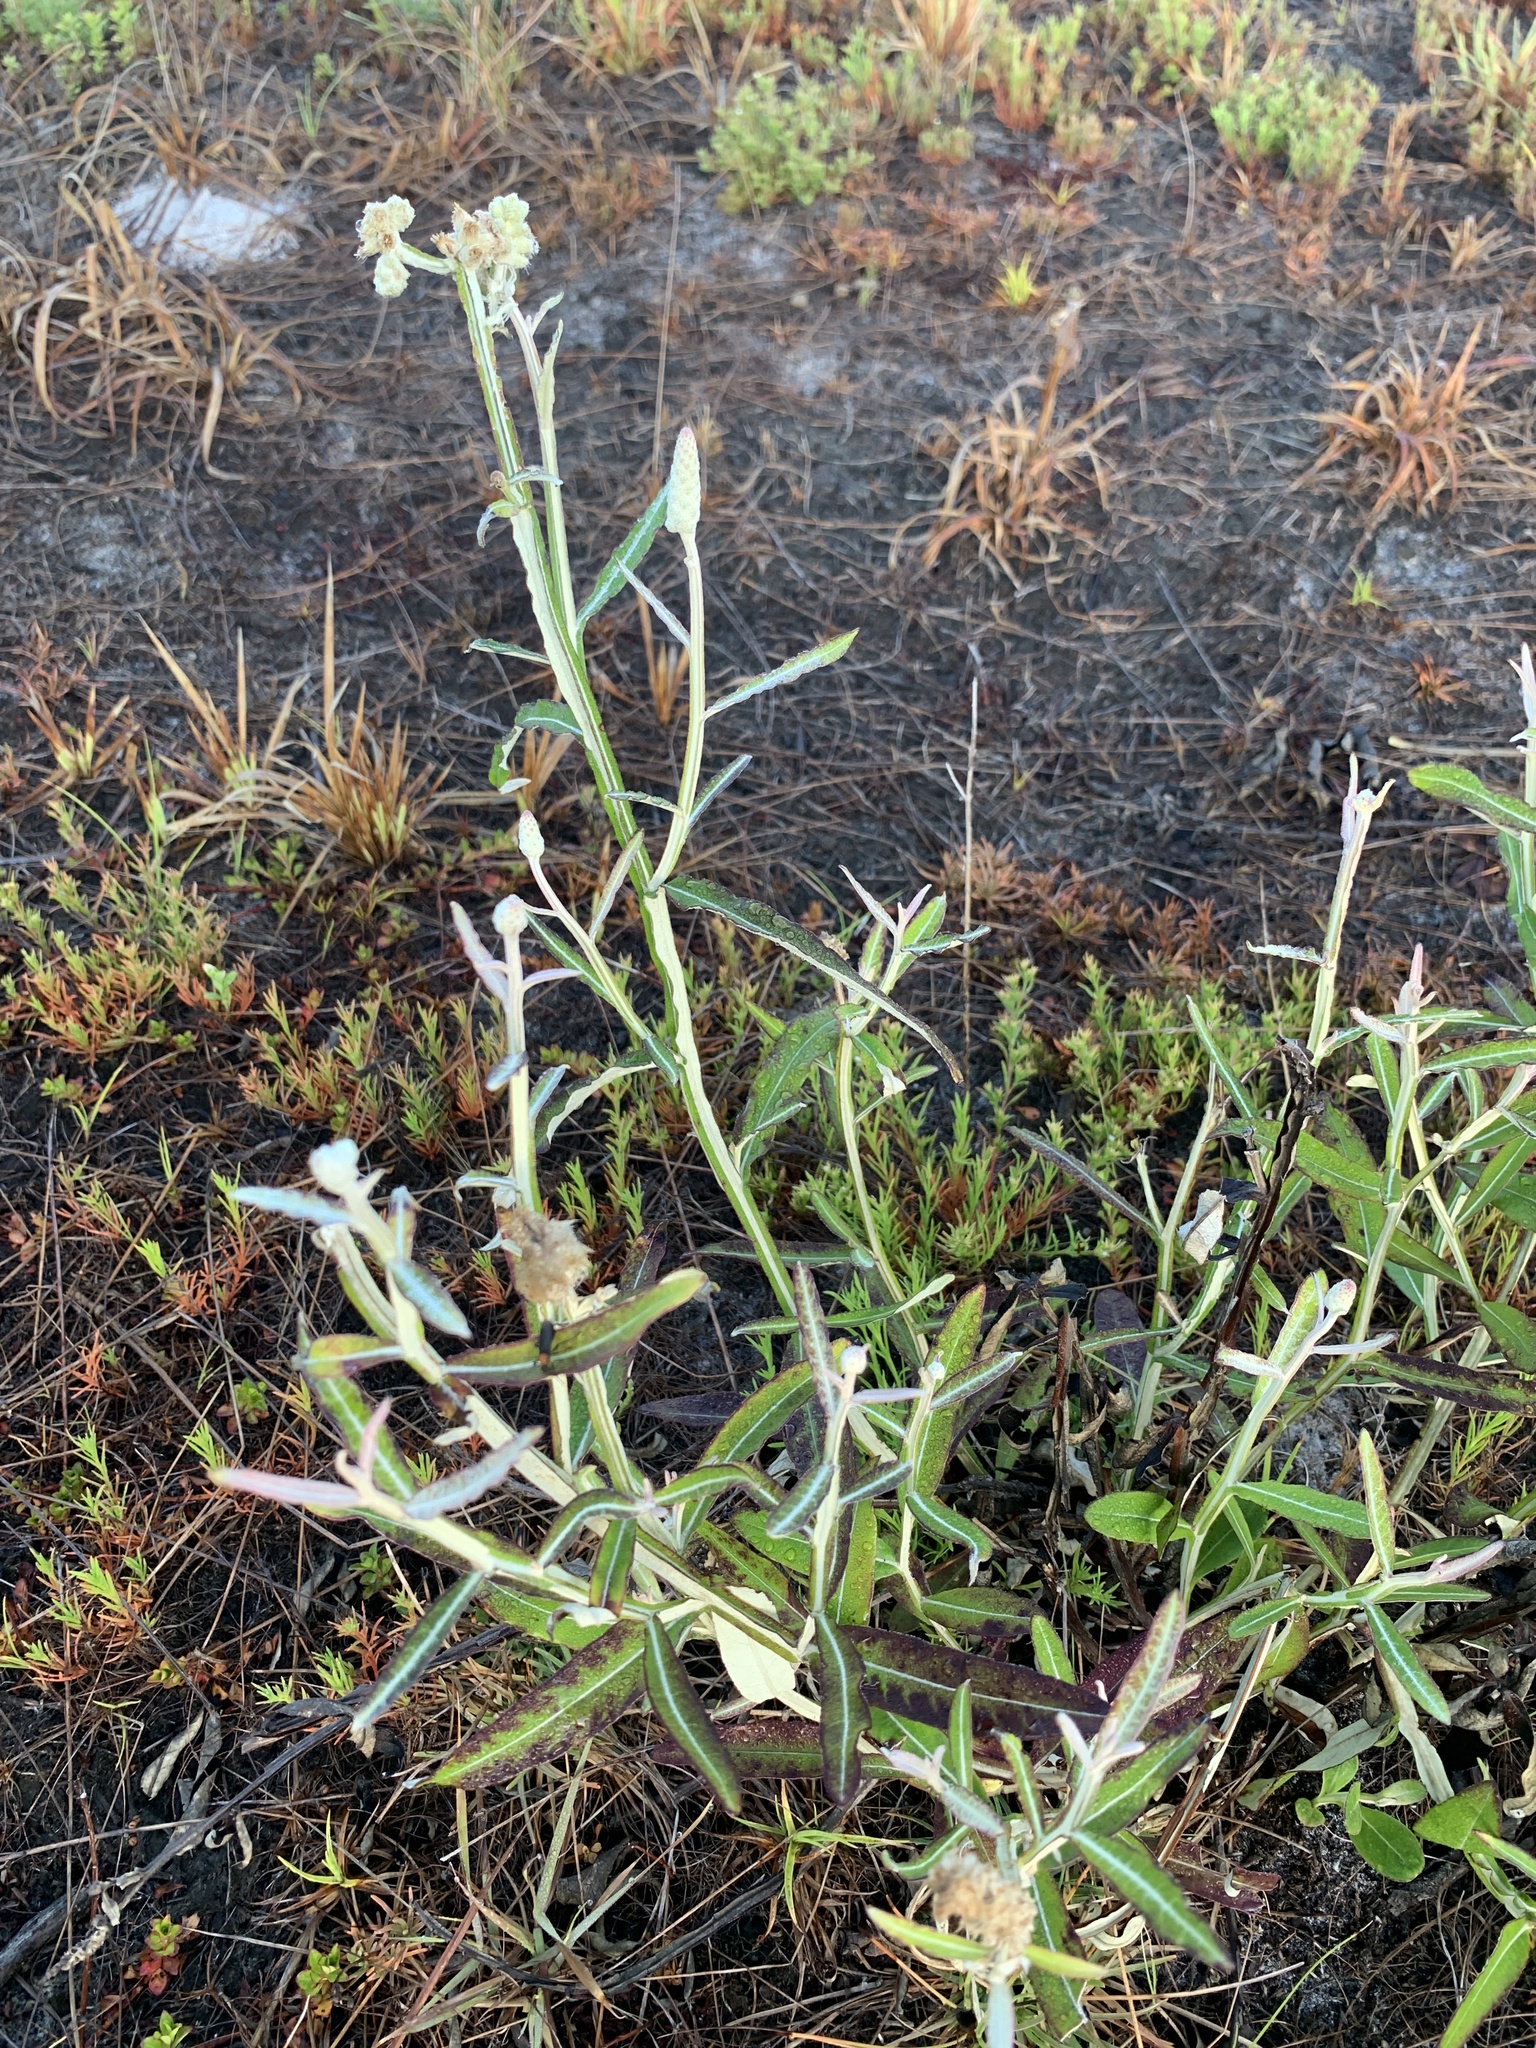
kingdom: Plantae
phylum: Tracheophyta
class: Magnoliopsida
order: Asterales
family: Asteraceae
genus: Pterocaulon
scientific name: Pterocaulon pycnostachyum
